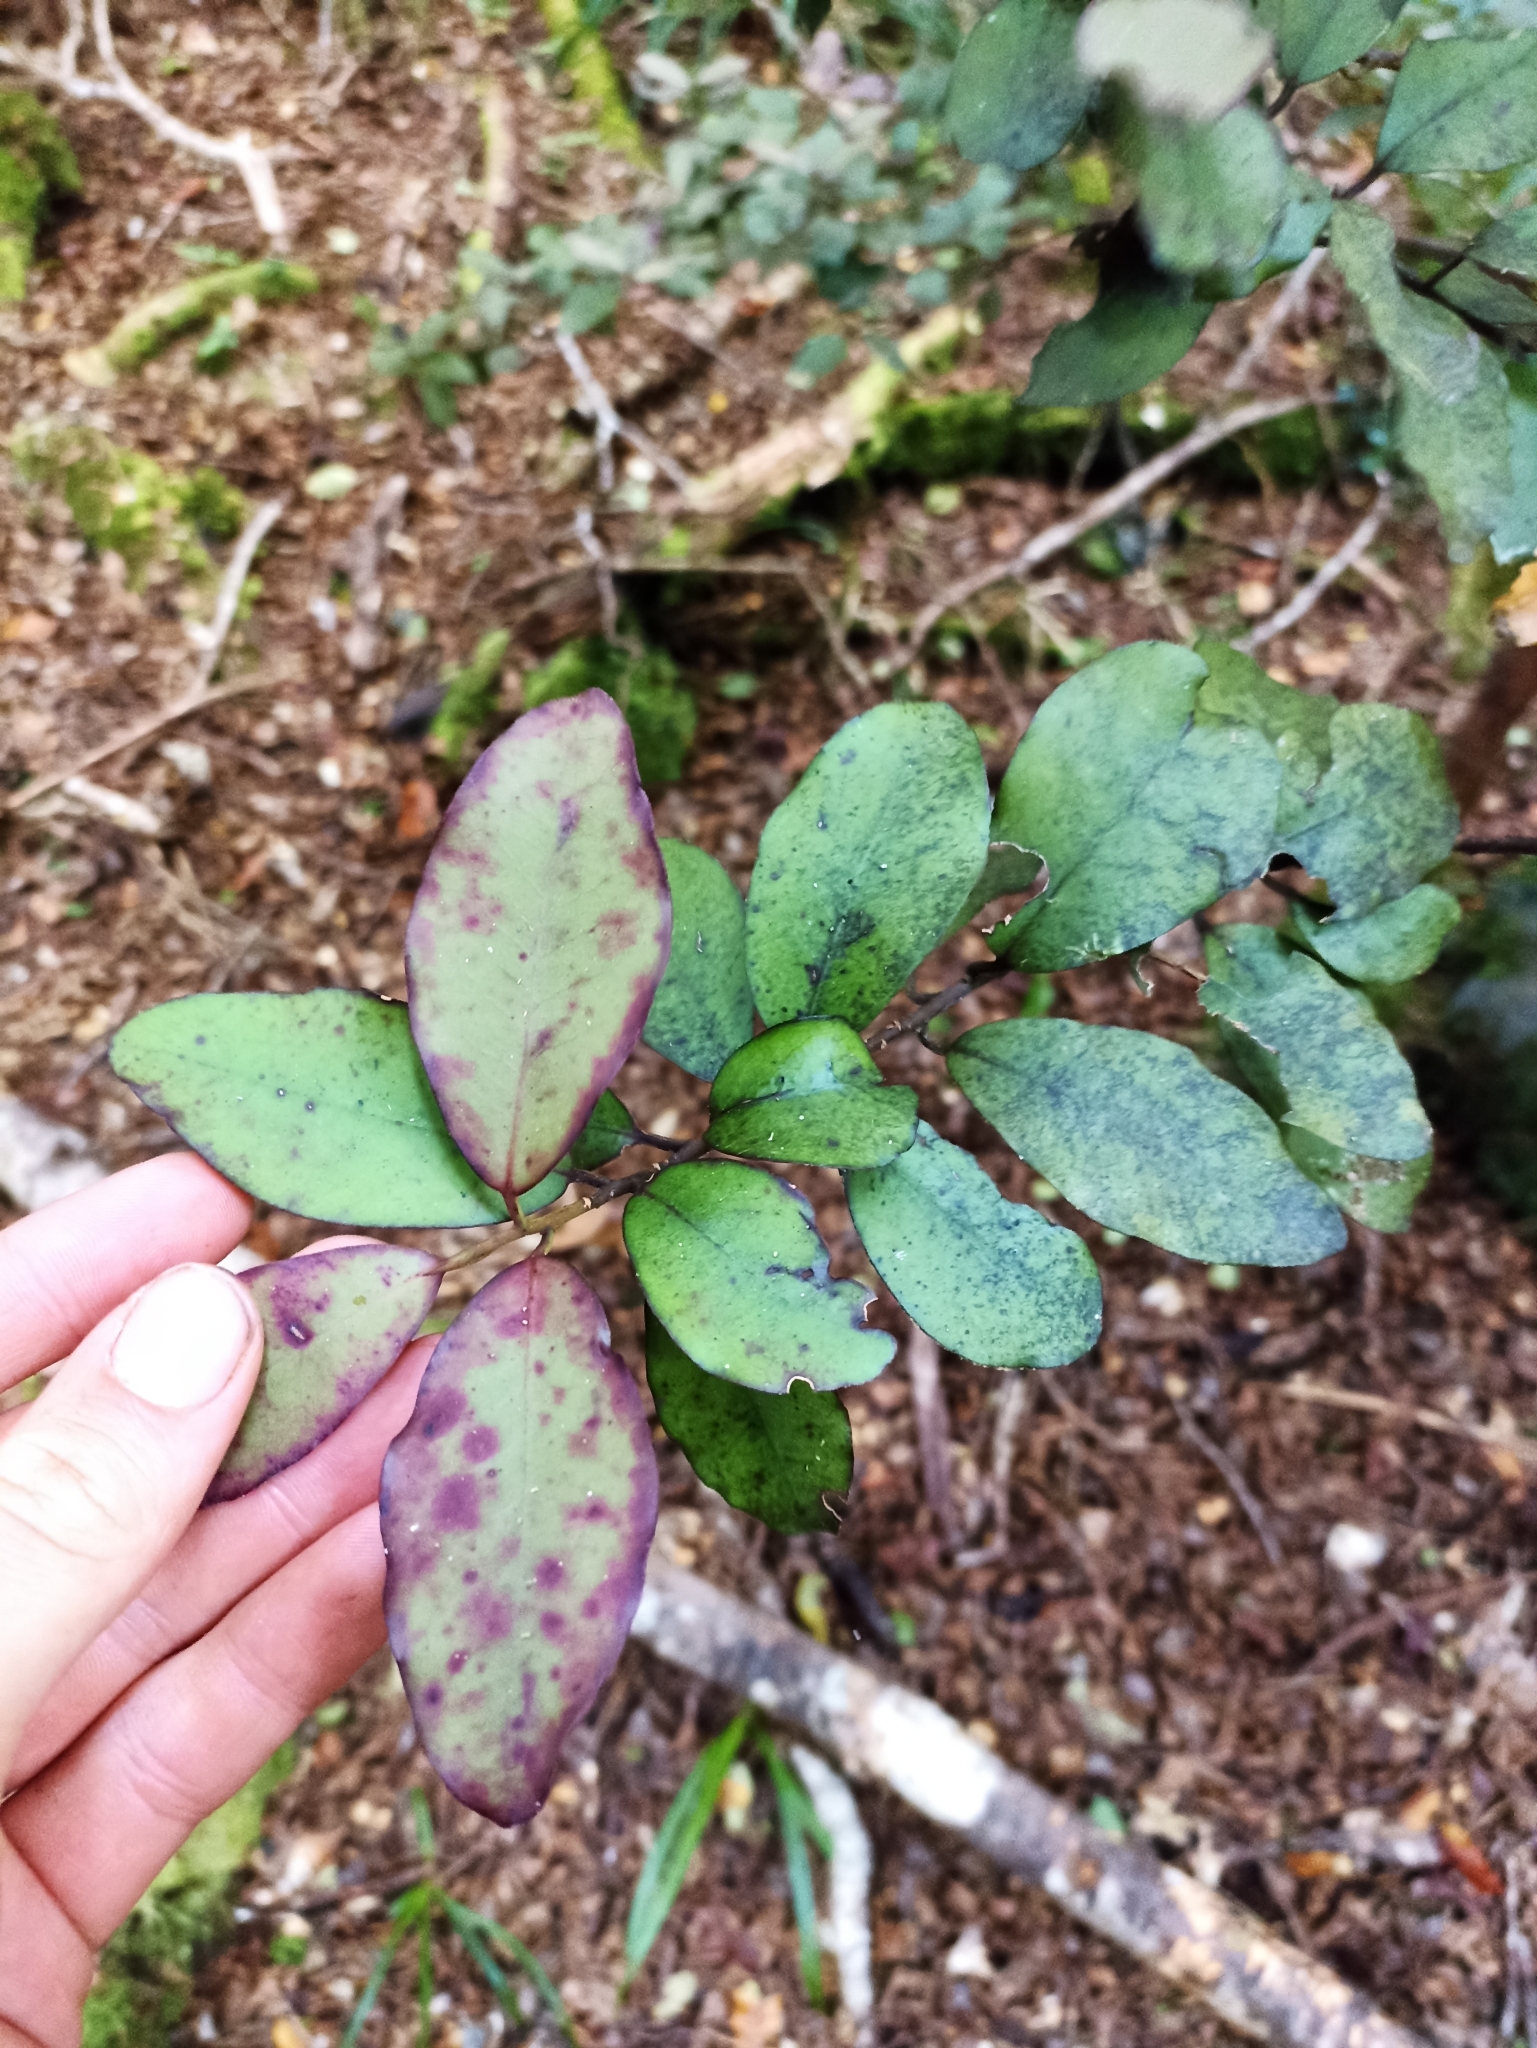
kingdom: Plantae
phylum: Tracheophyta
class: Magnoliopsida
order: Canellales
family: Winteraceae
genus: Pseudowintera
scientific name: Pseudowintera colorata
